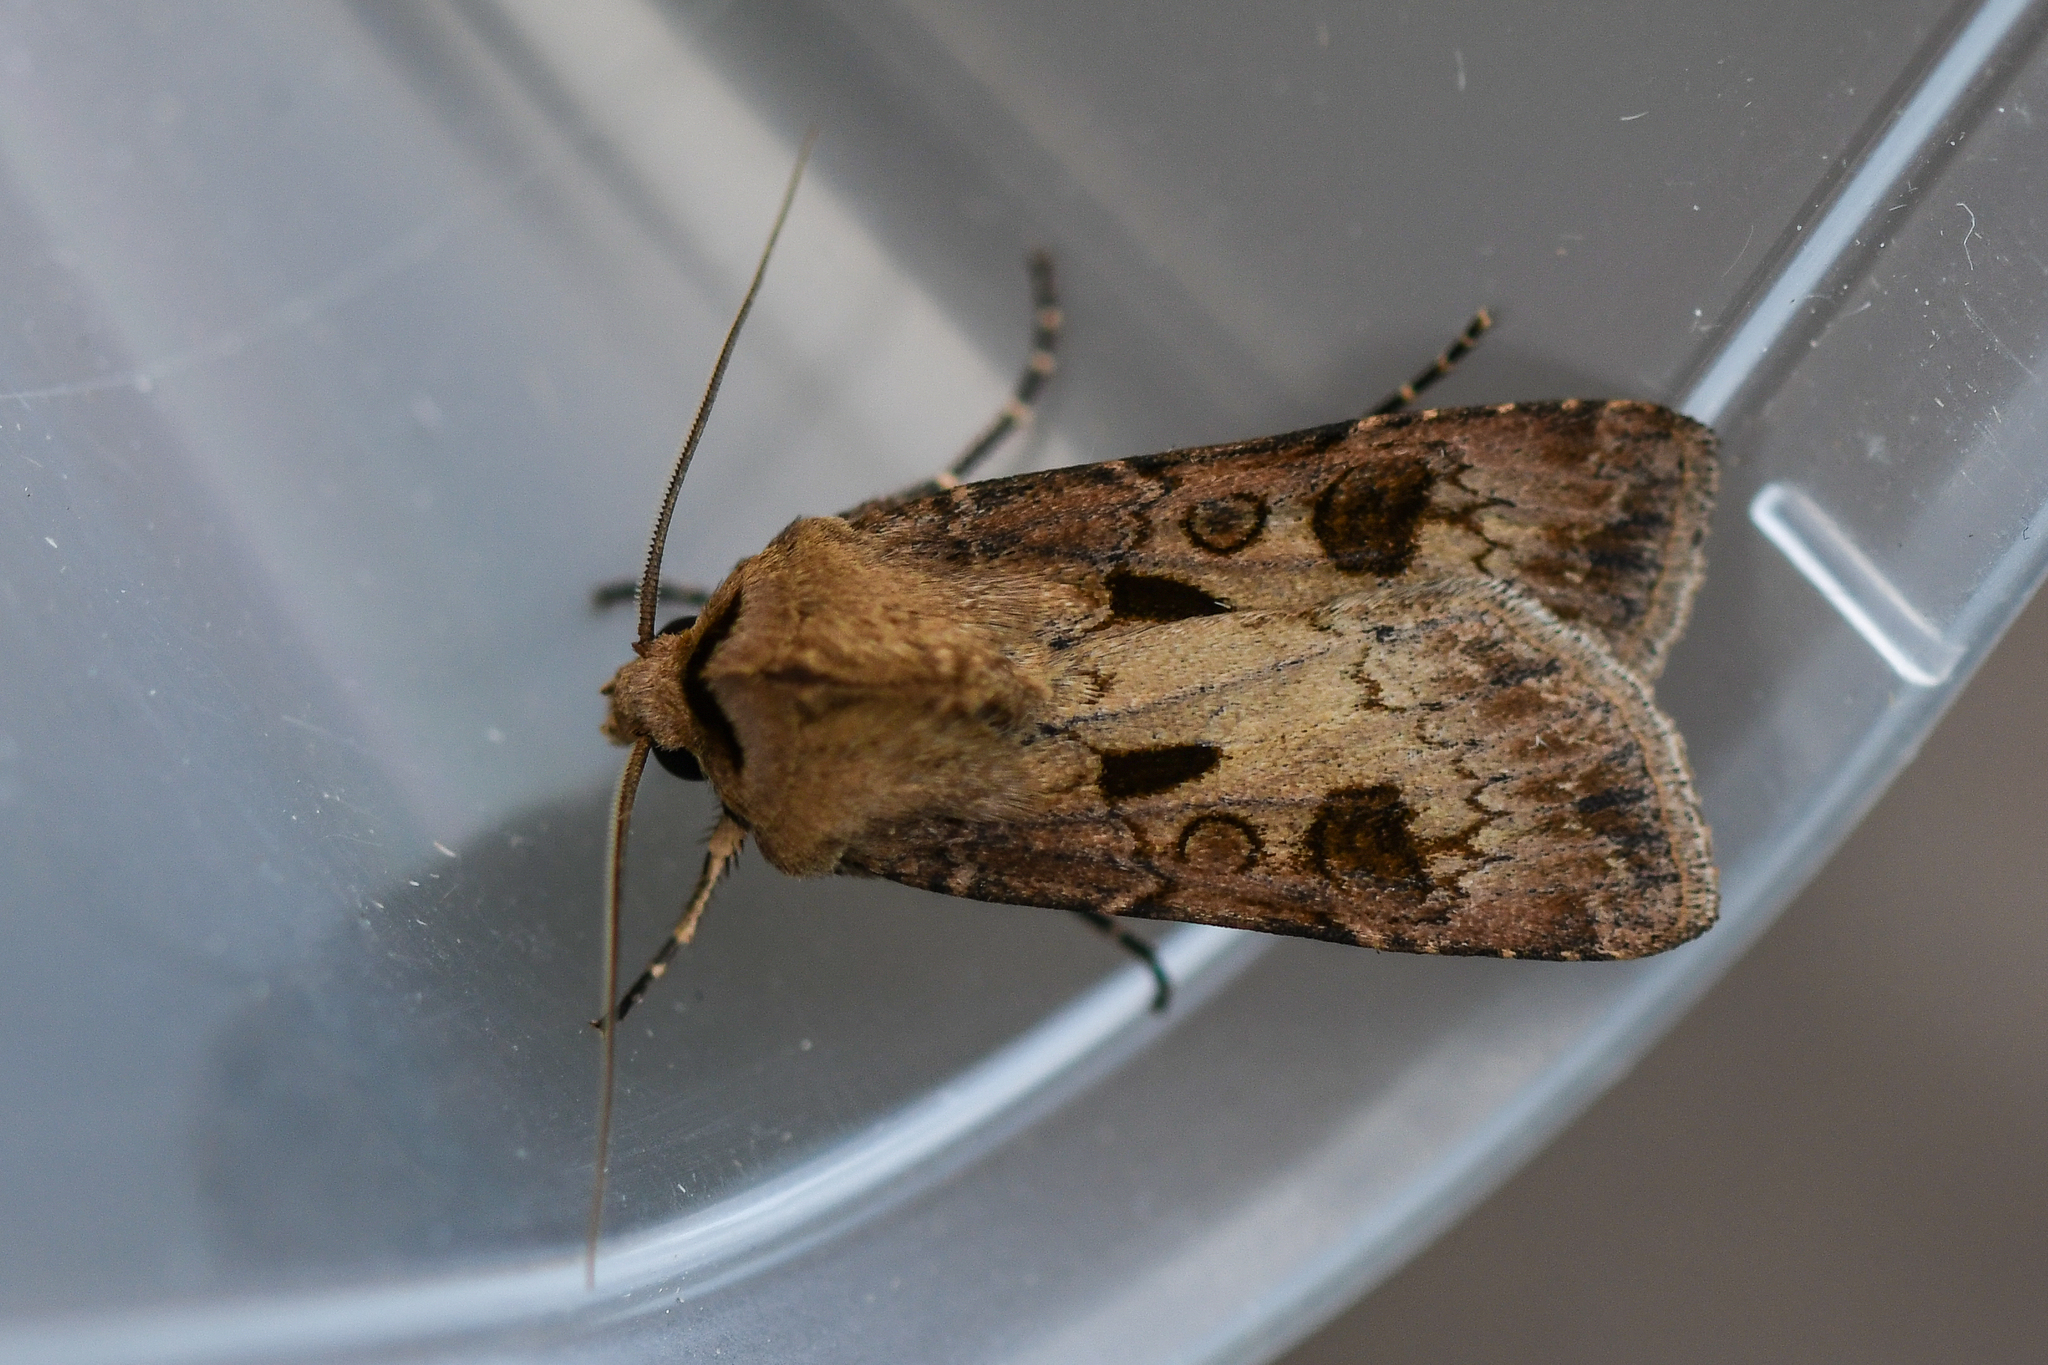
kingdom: Animalia
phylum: Arthropoda
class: Insecta
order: Lepidoptera
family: Noctuidae
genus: Agrotis
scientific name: Agrotis exclamationis
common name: Heart and dart
